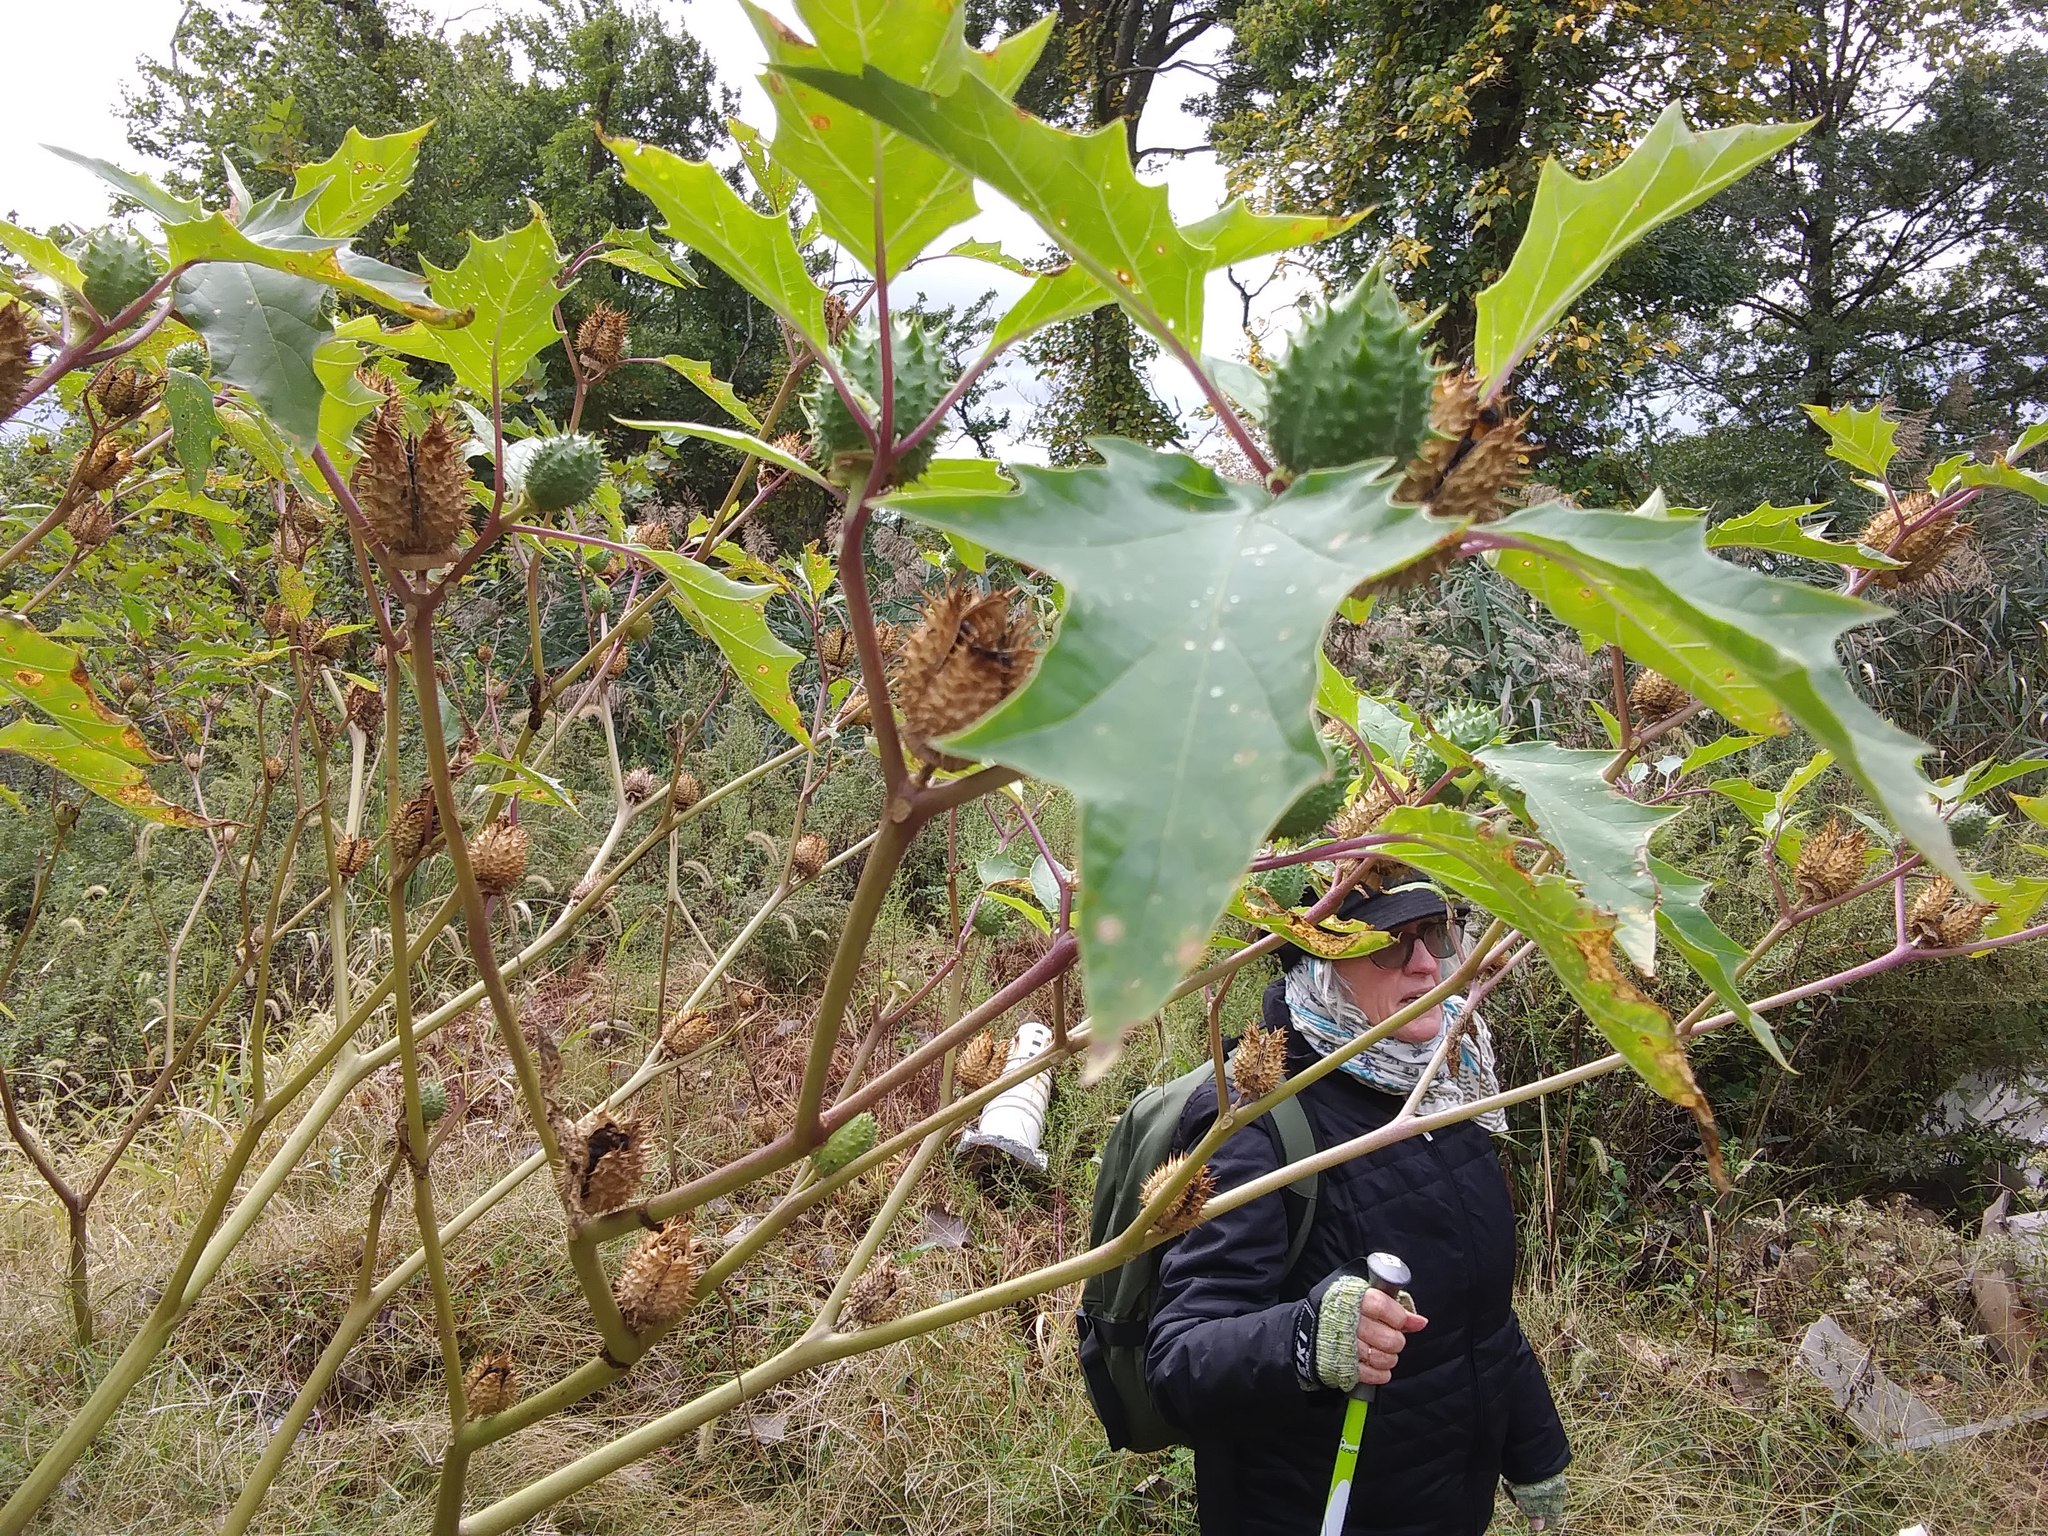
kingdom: Plantae
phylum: Tracheophyta
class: Magnoliopsida
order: Solanales
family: Solanaceae
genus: Datura
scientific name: Datura stramonium
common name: Thorn-apple
